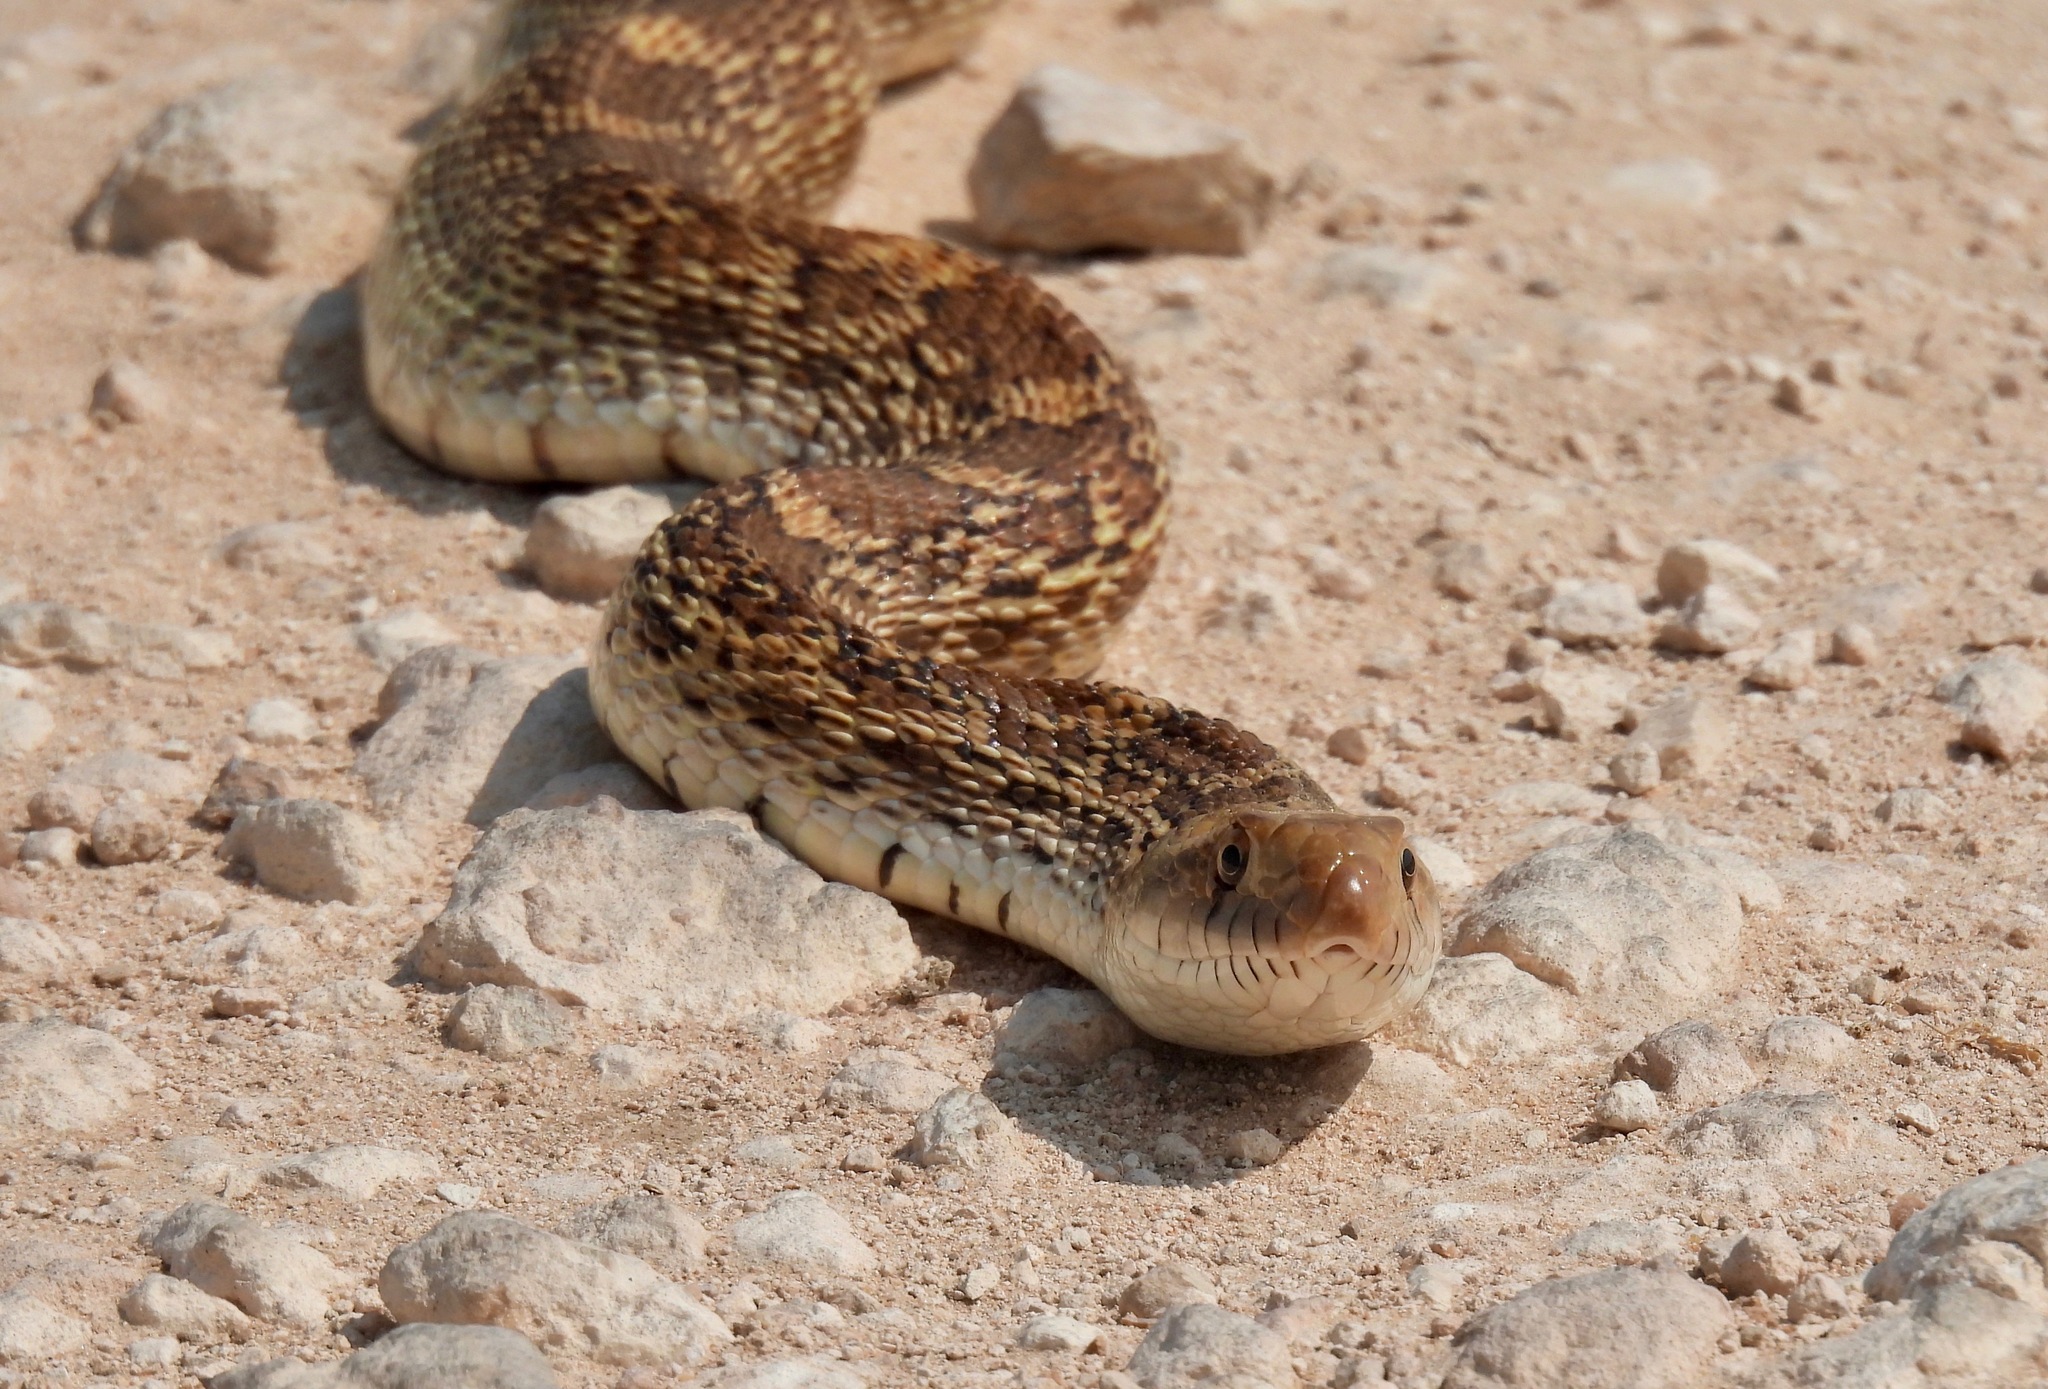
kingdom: Animalia
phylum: Chordata
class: Squamata
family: Colubridae
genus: Pituophis
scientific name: Pituophis catenifer
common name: Gopher snake
